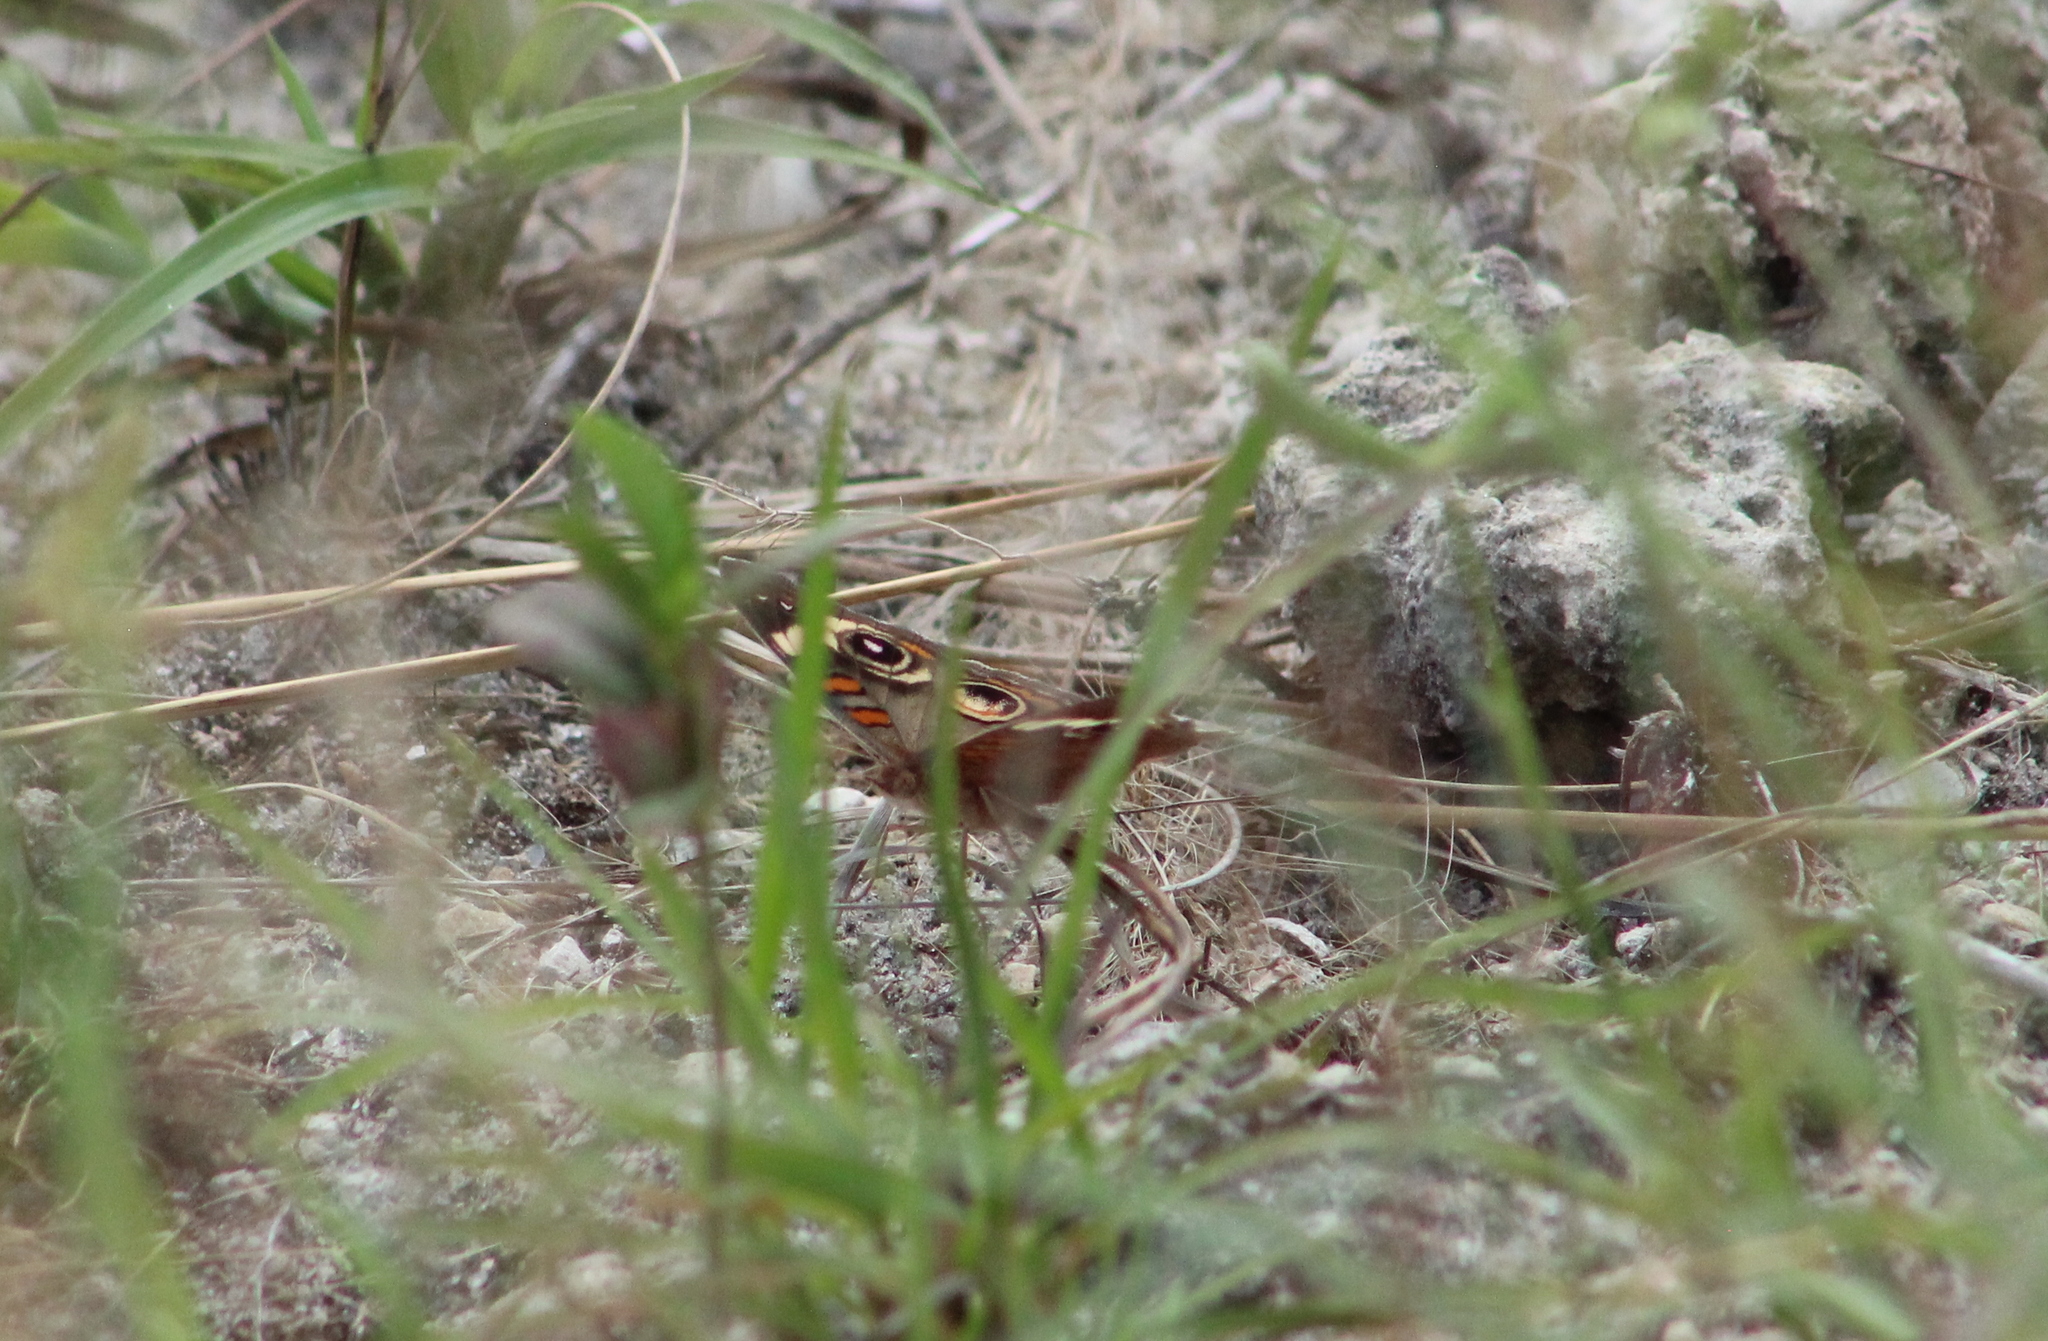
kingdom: Animalia
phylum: Arthropoda
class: Insecta
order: Lepidoptera
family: Nymphalidae
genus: Junonia
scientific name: Junonia coenia
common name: Common buckeye
